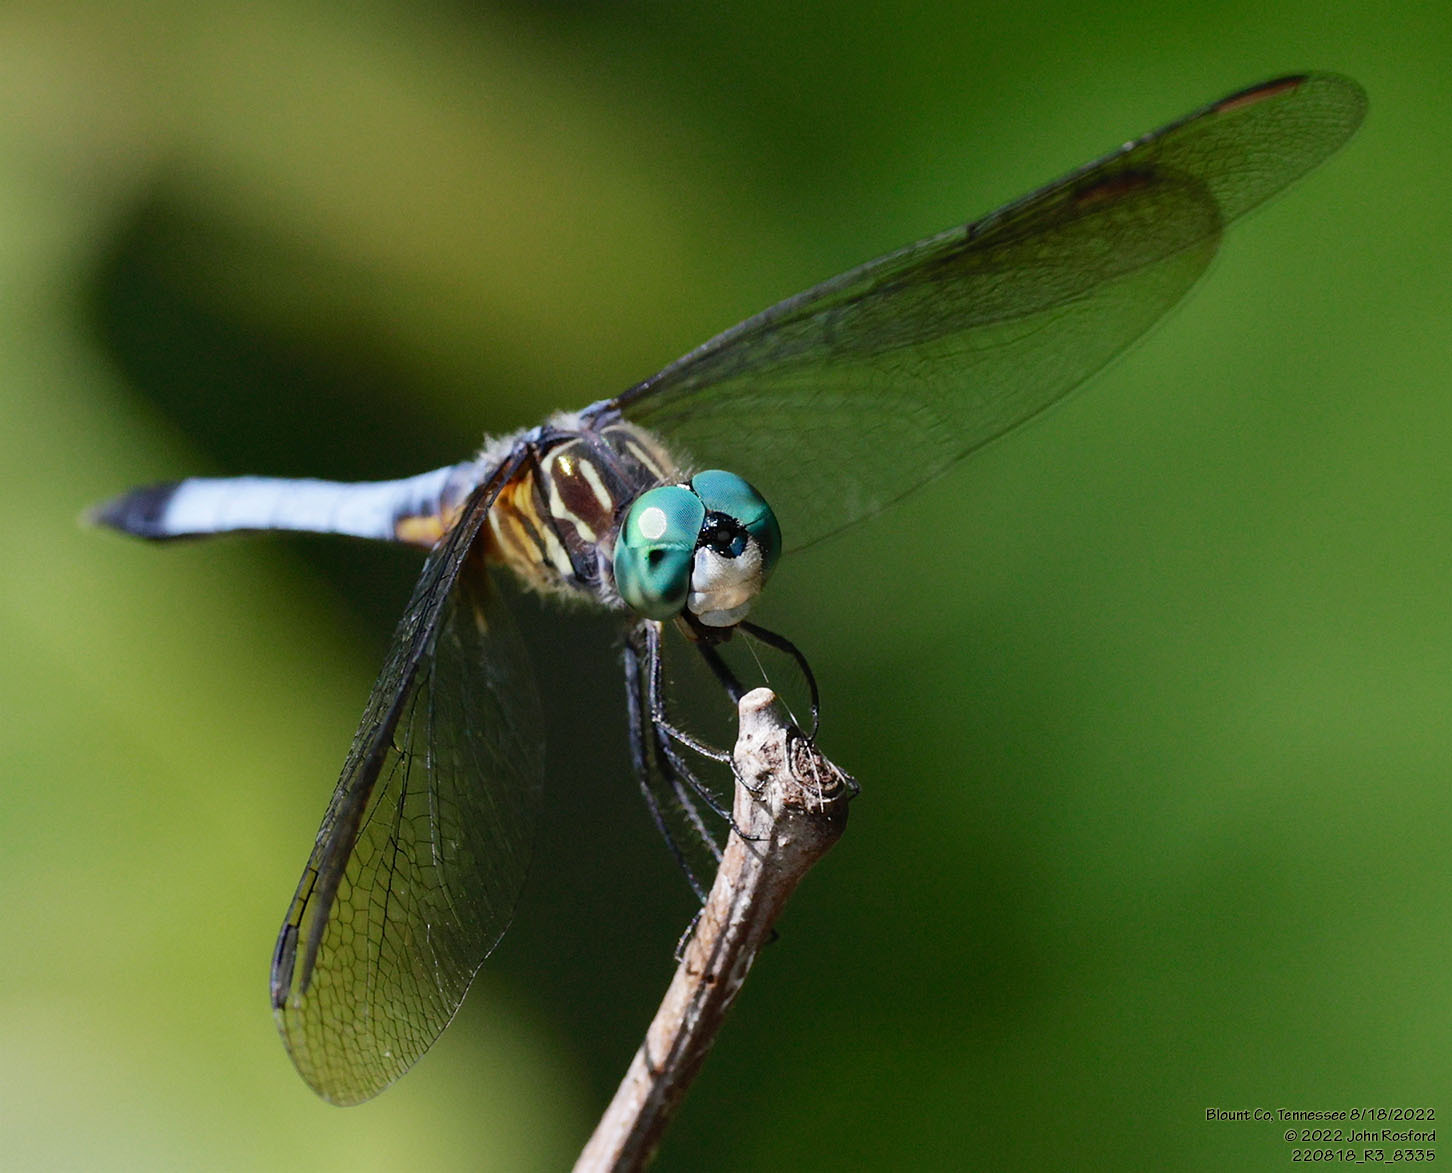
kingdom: Animalia
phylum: Arthropoda
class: Insecta
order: Odonata
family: Libellulidae
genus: Pachydiplax
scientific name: Pachydiplax longipennis
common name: Blue dasher
